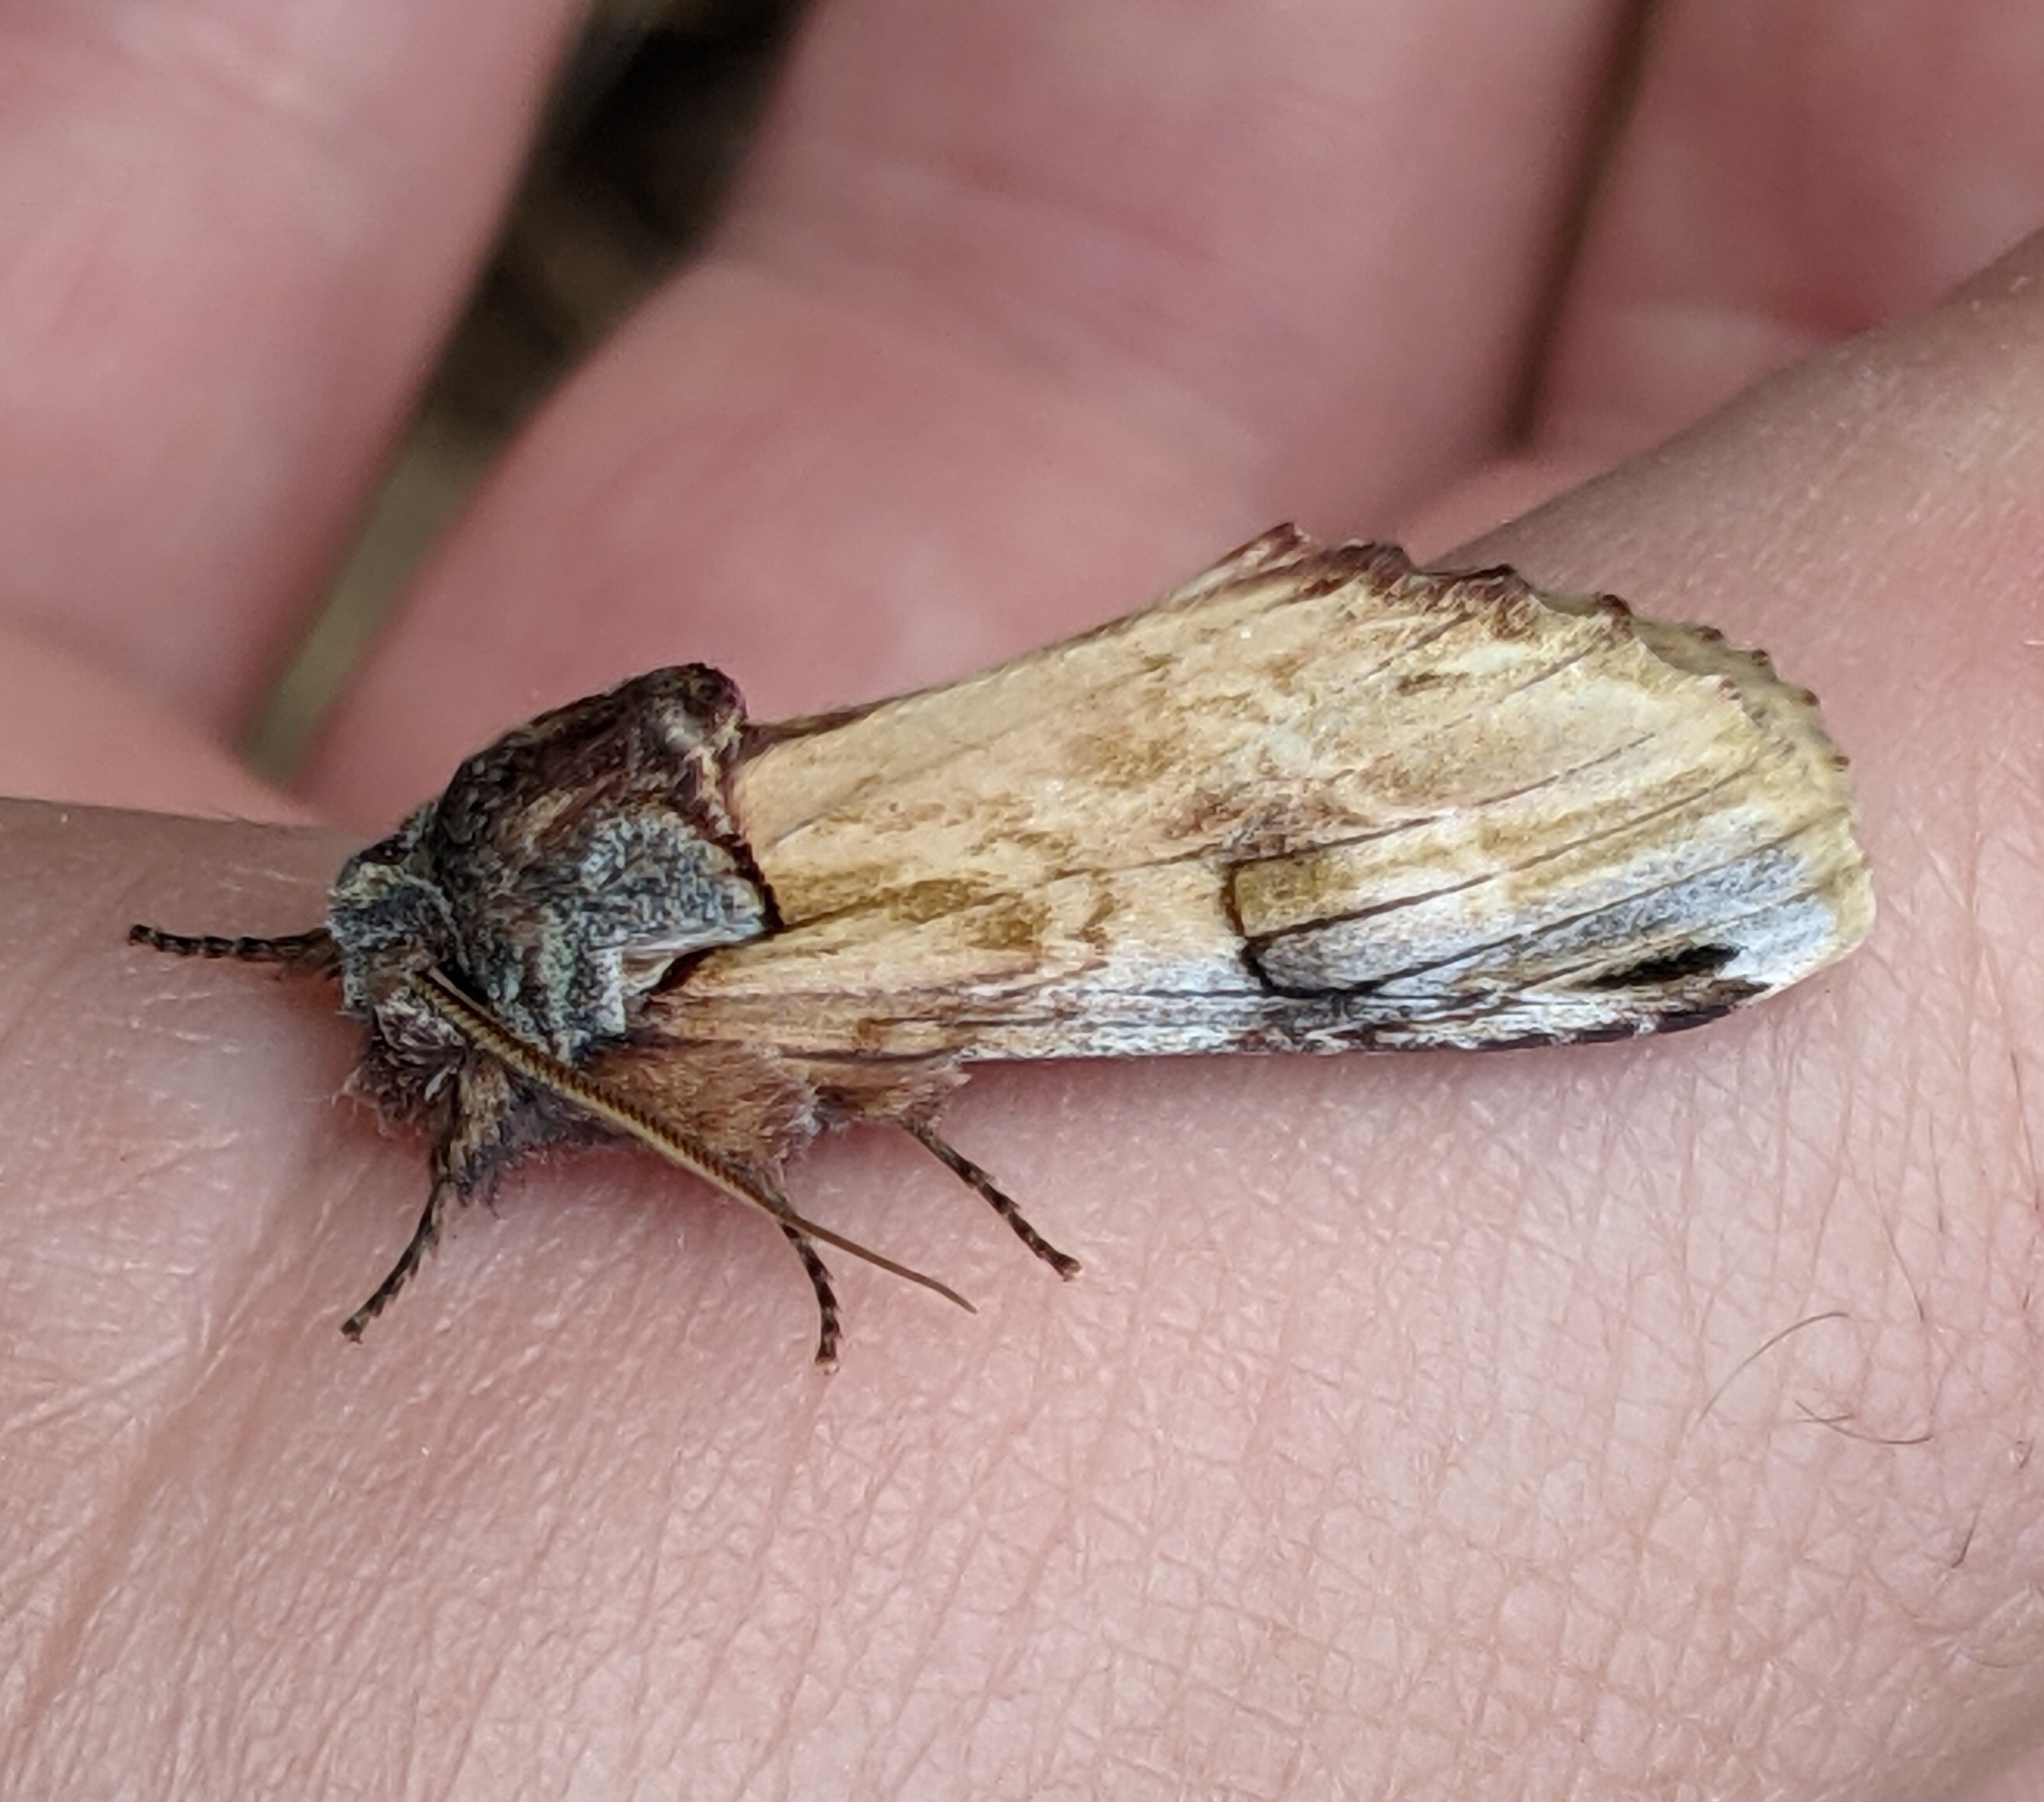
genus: Ianassa
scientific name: Ianassa
